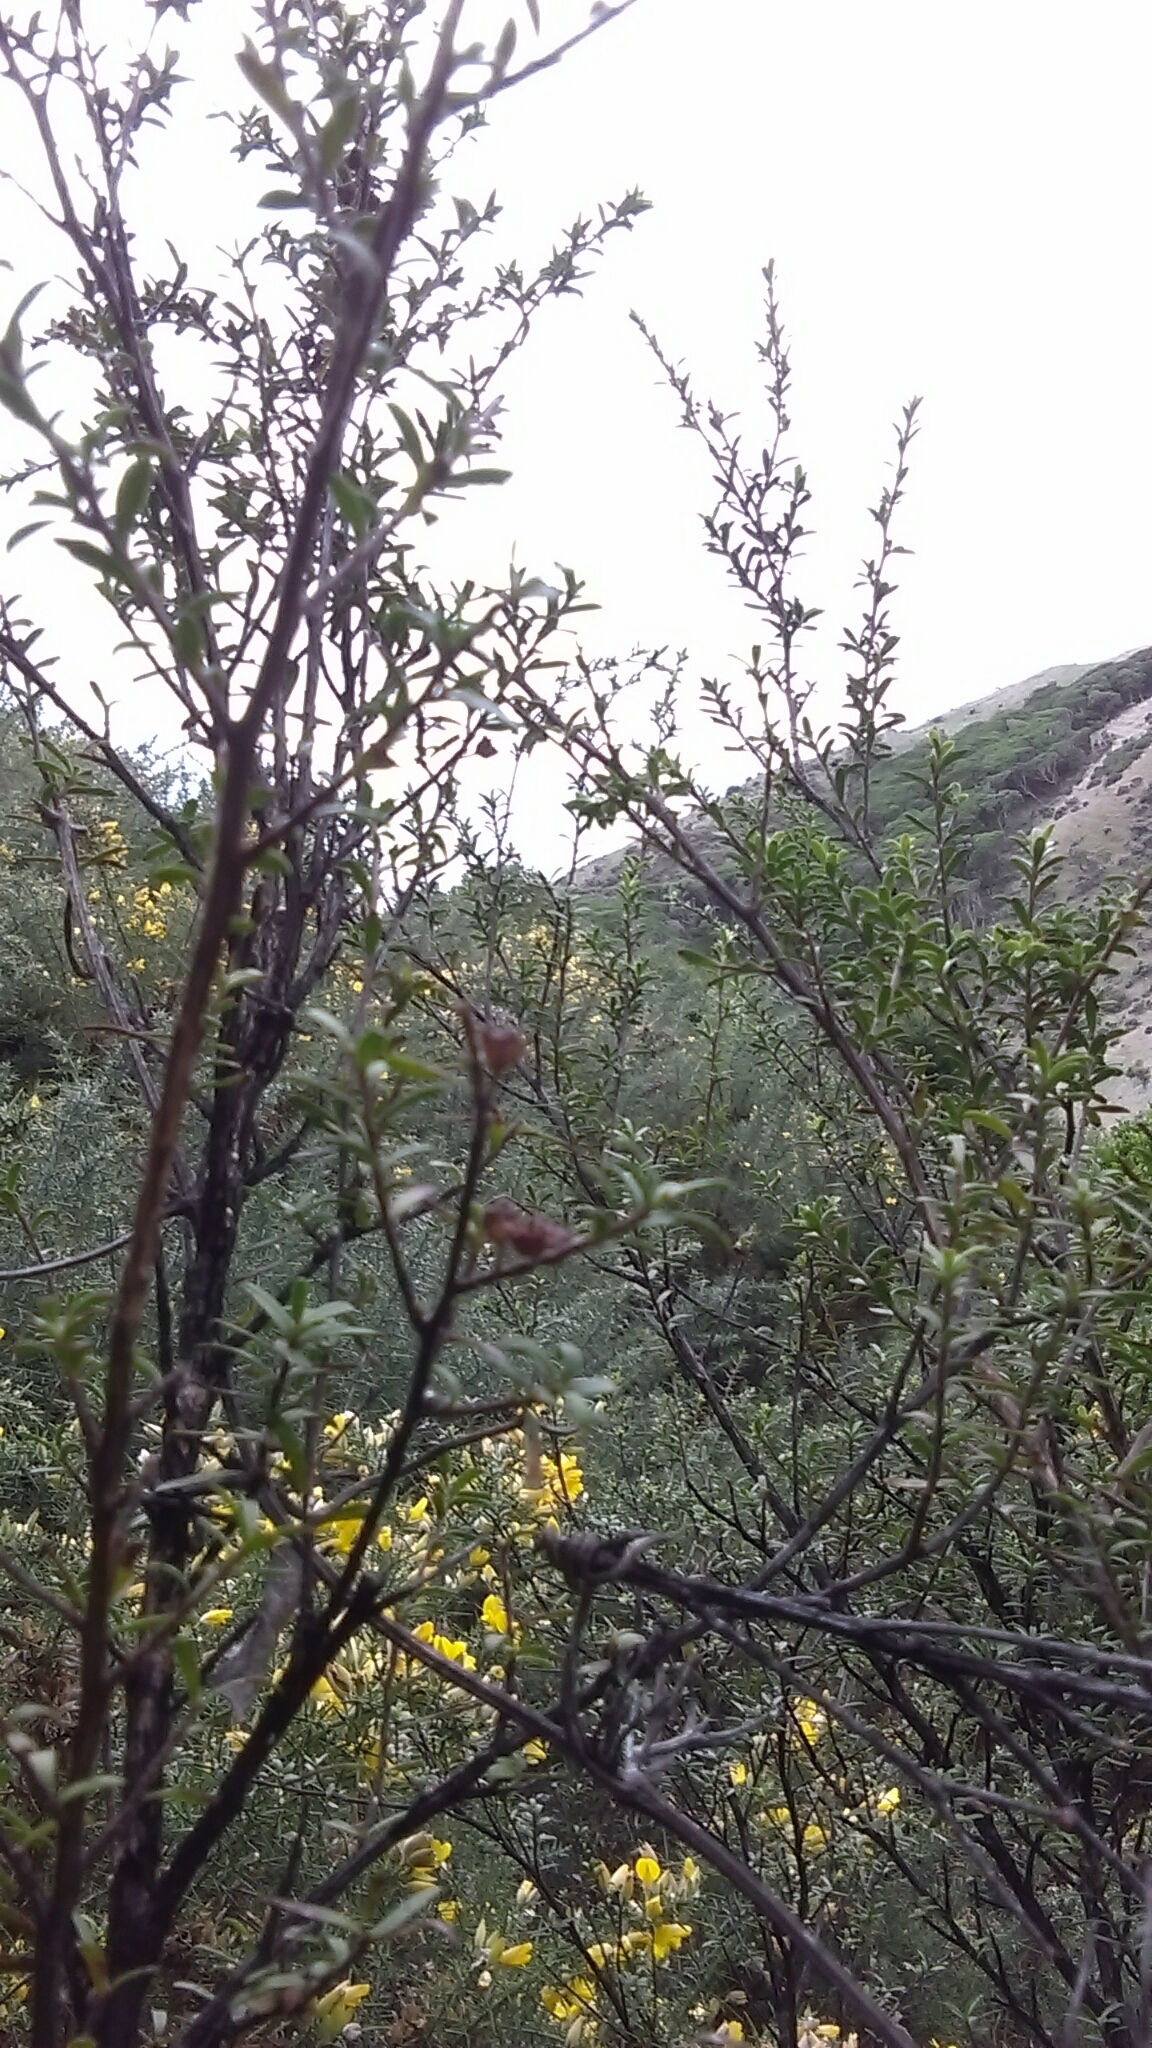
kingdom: Plantae
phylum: Tracheophyta
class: Magnoliopsida
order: Myrtales
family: Myrtaceae
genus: Kunzea
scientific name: Kunzea amathicola
